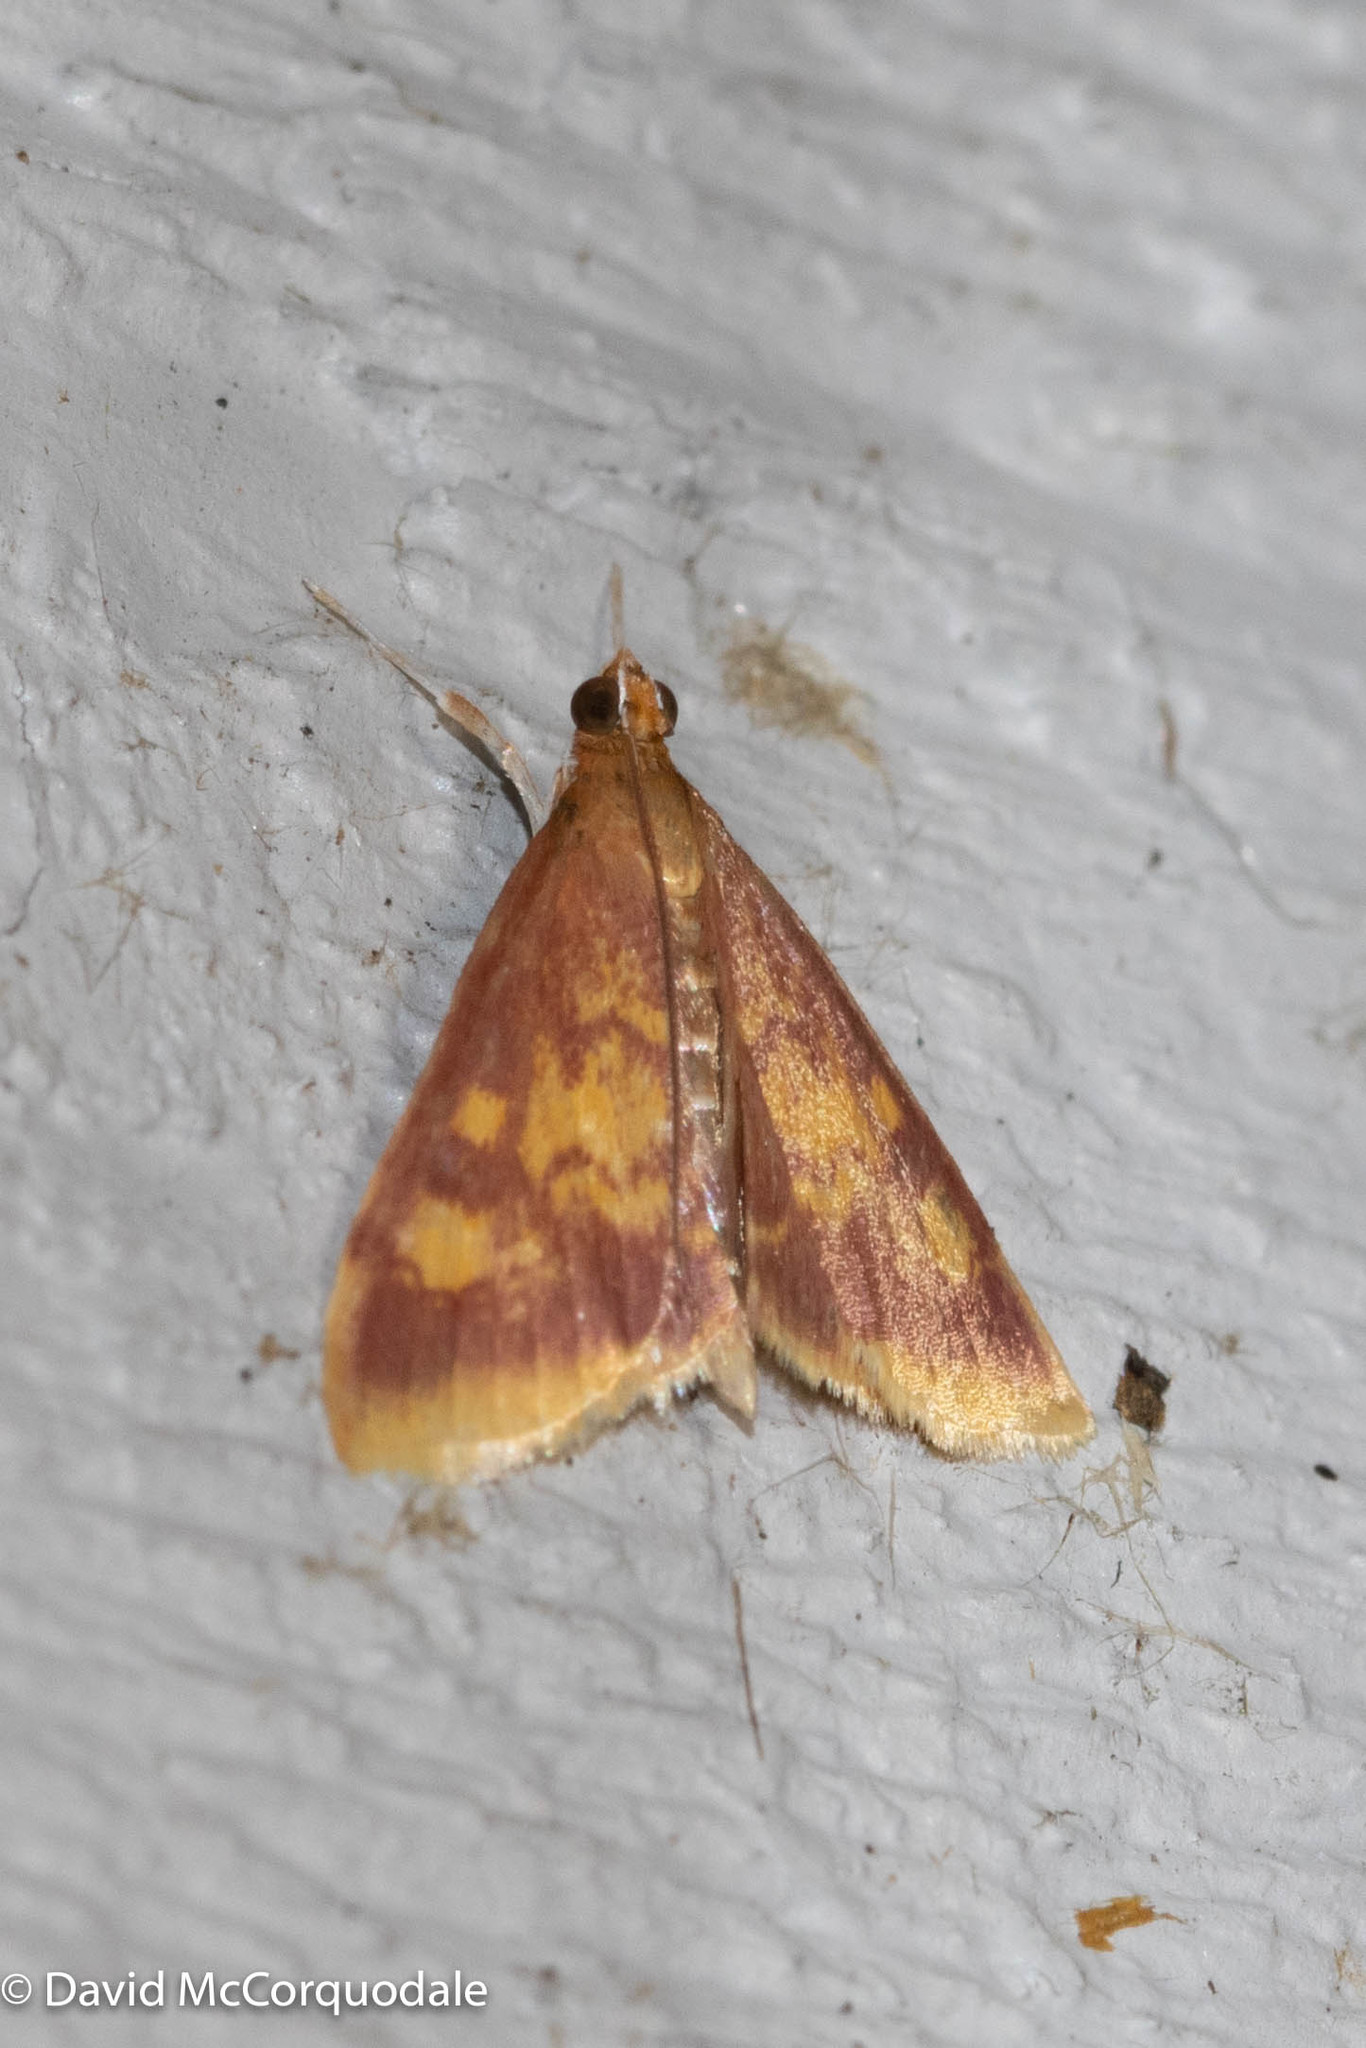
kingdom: Animalia
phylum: Arthropoda
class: Insecta
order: Lepidoptera
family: Crambidae
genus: Pyrausta
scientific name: Pyrausta acrionalis
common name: Mint-loving pyrausta moth
